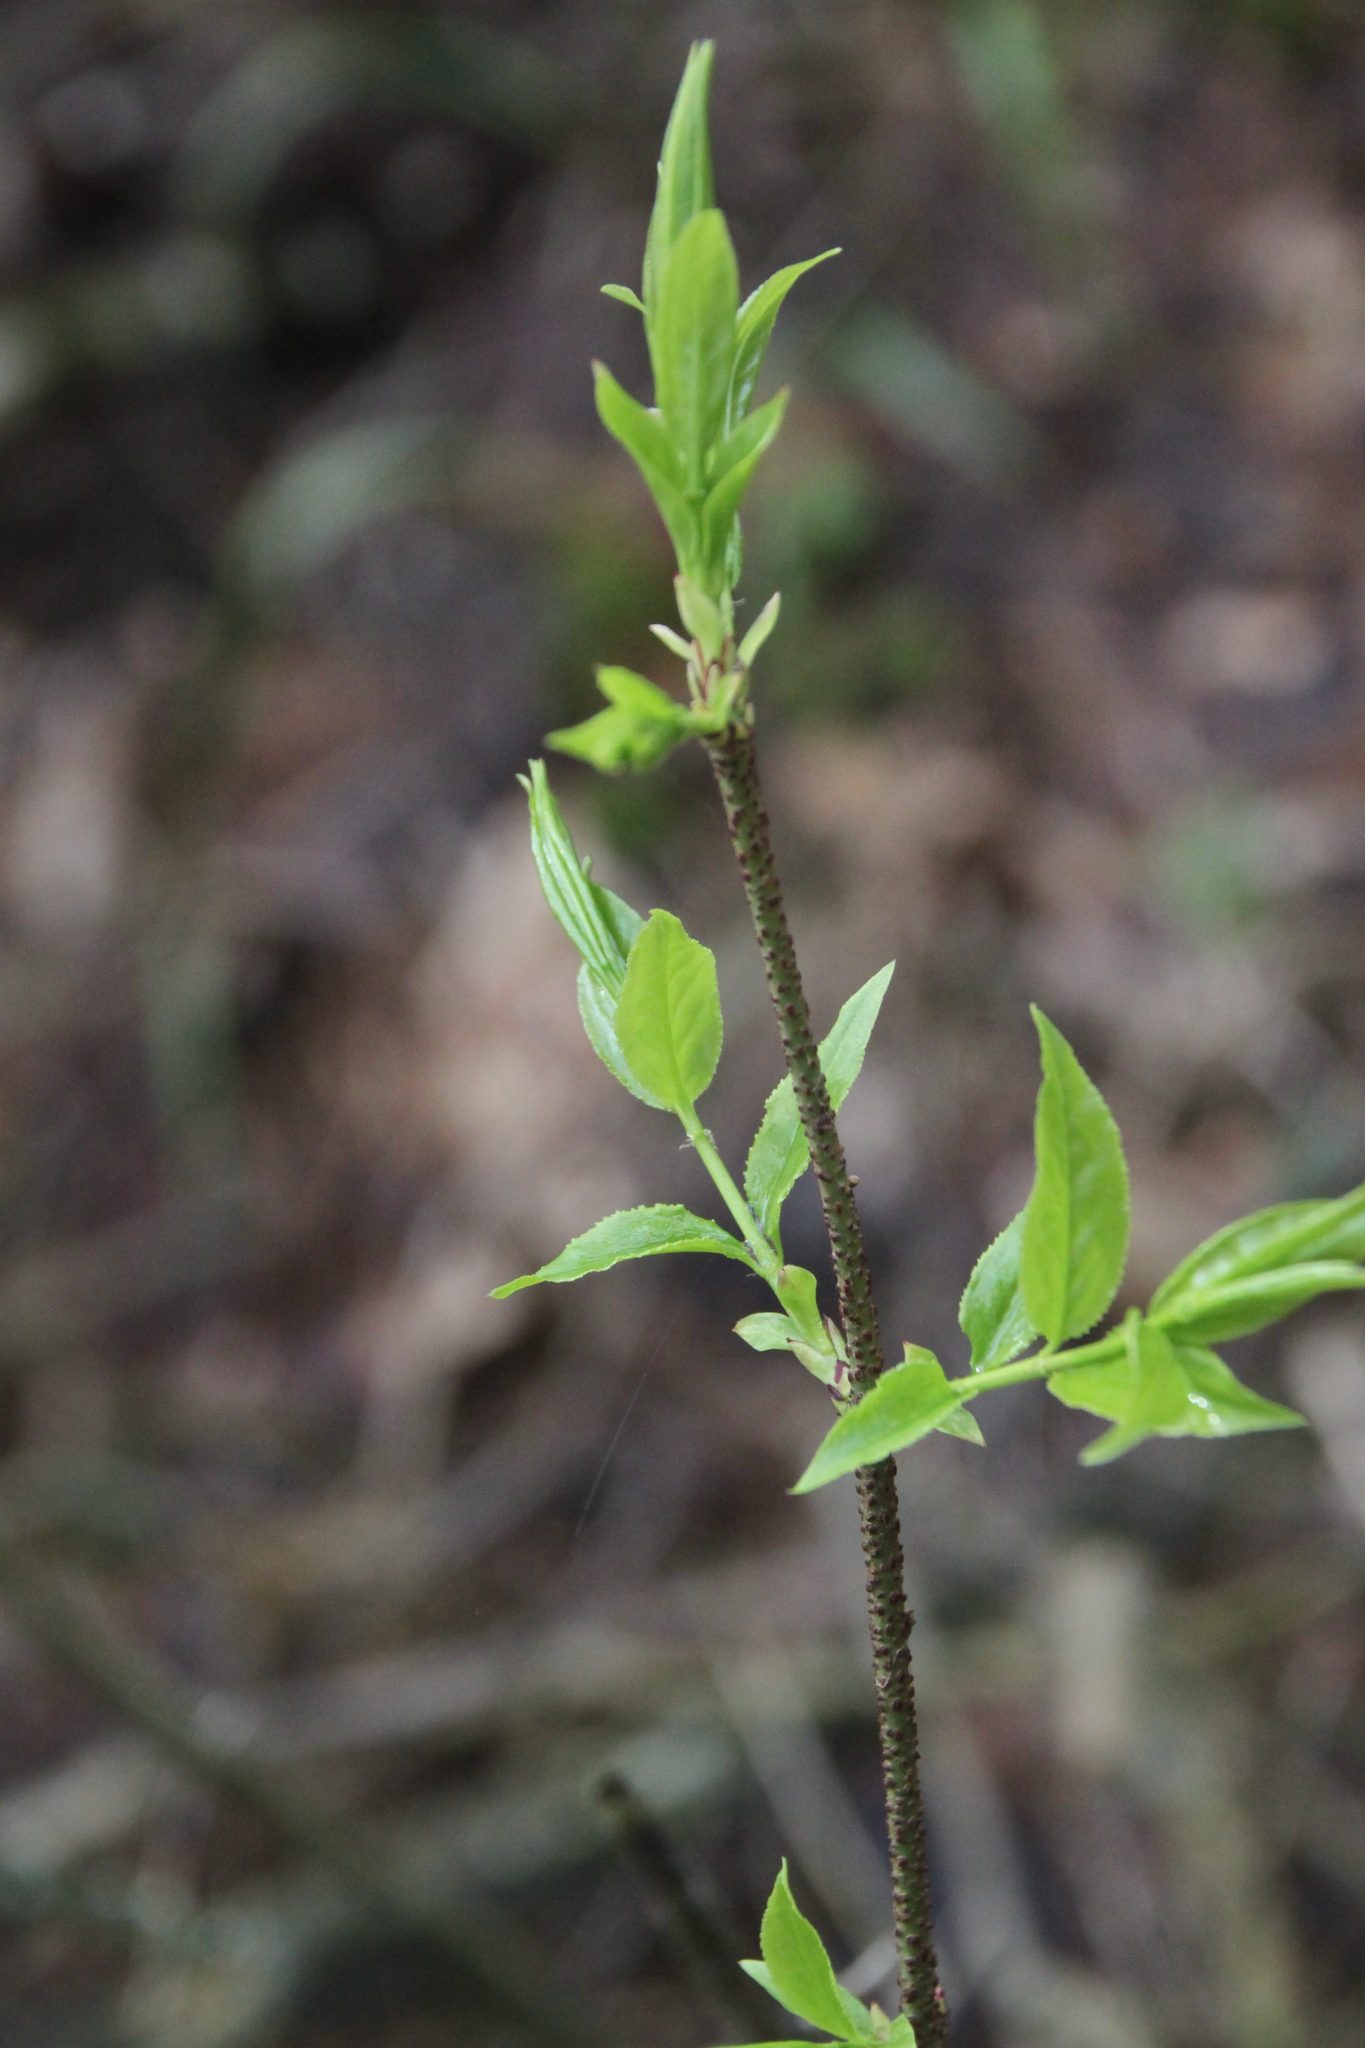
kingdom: Plantae
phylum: Tracheophyta
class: Magnoliopsida
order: Celastrales
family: Celastraceae
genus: Euonymus
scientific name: Euonymus verrucosus
